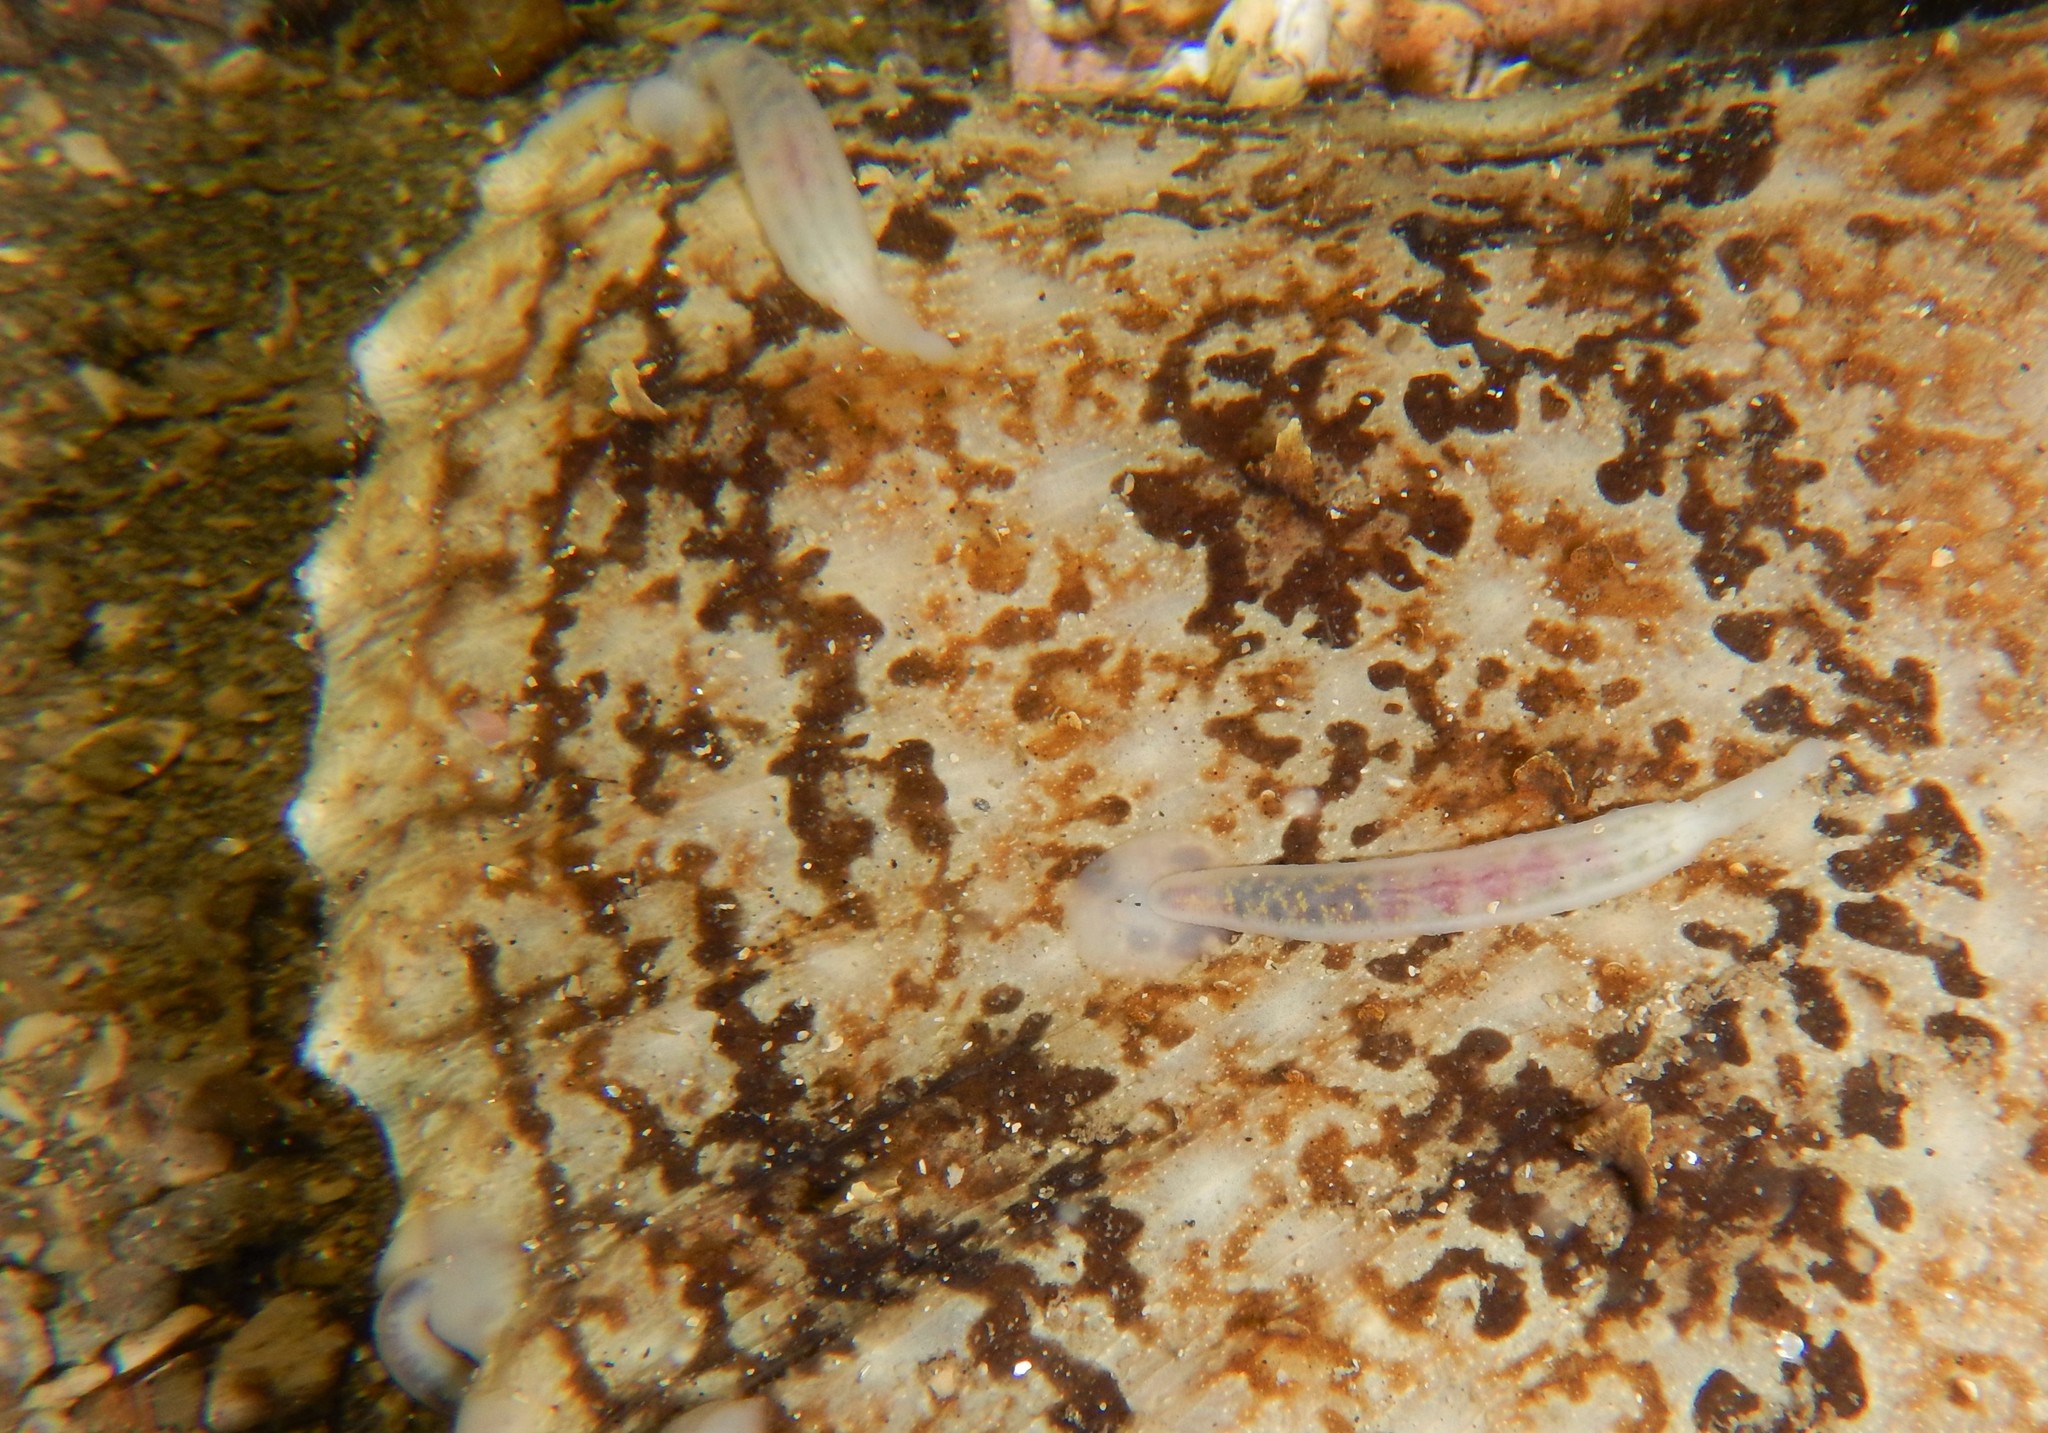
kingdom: Animalia
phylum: Annelida
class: Clitellata
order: Rhynchobdellida
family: Piscicolidae
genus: Calliobdella
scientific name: Calliobdella lophii
